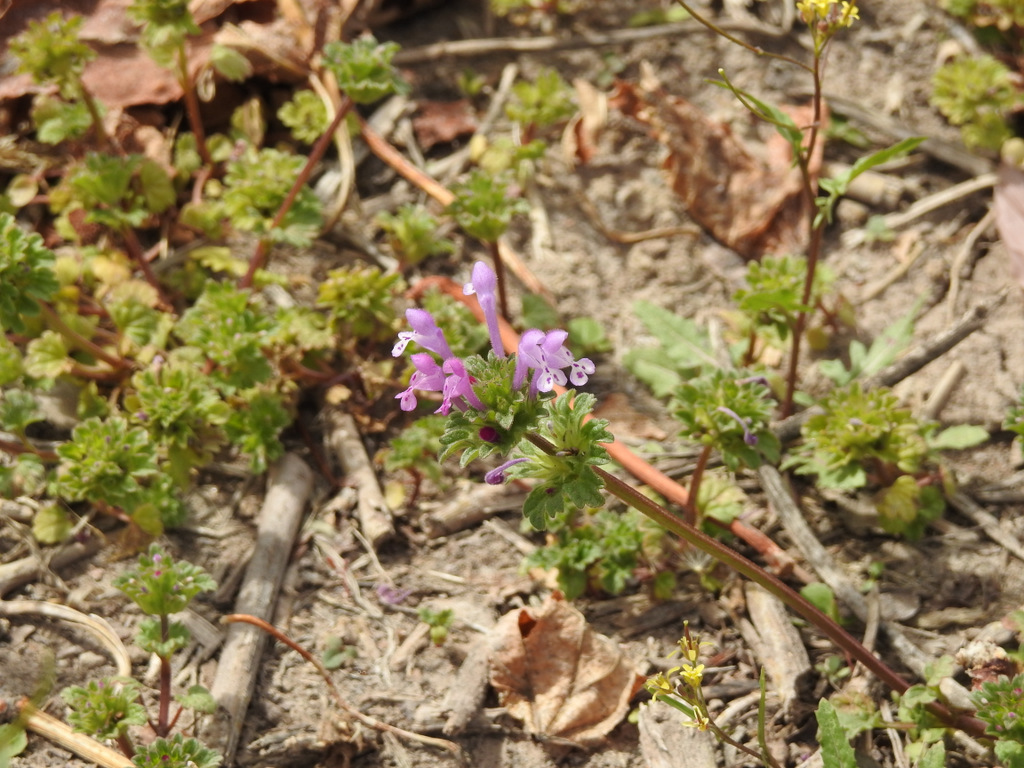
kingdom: Plantae
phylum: Tracheophyta
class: Magnoliopsida
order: Lamiales
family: Lamiaceae
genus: Lamium
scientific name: Lamium amplexicaule
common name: Henbit dead-nettle
